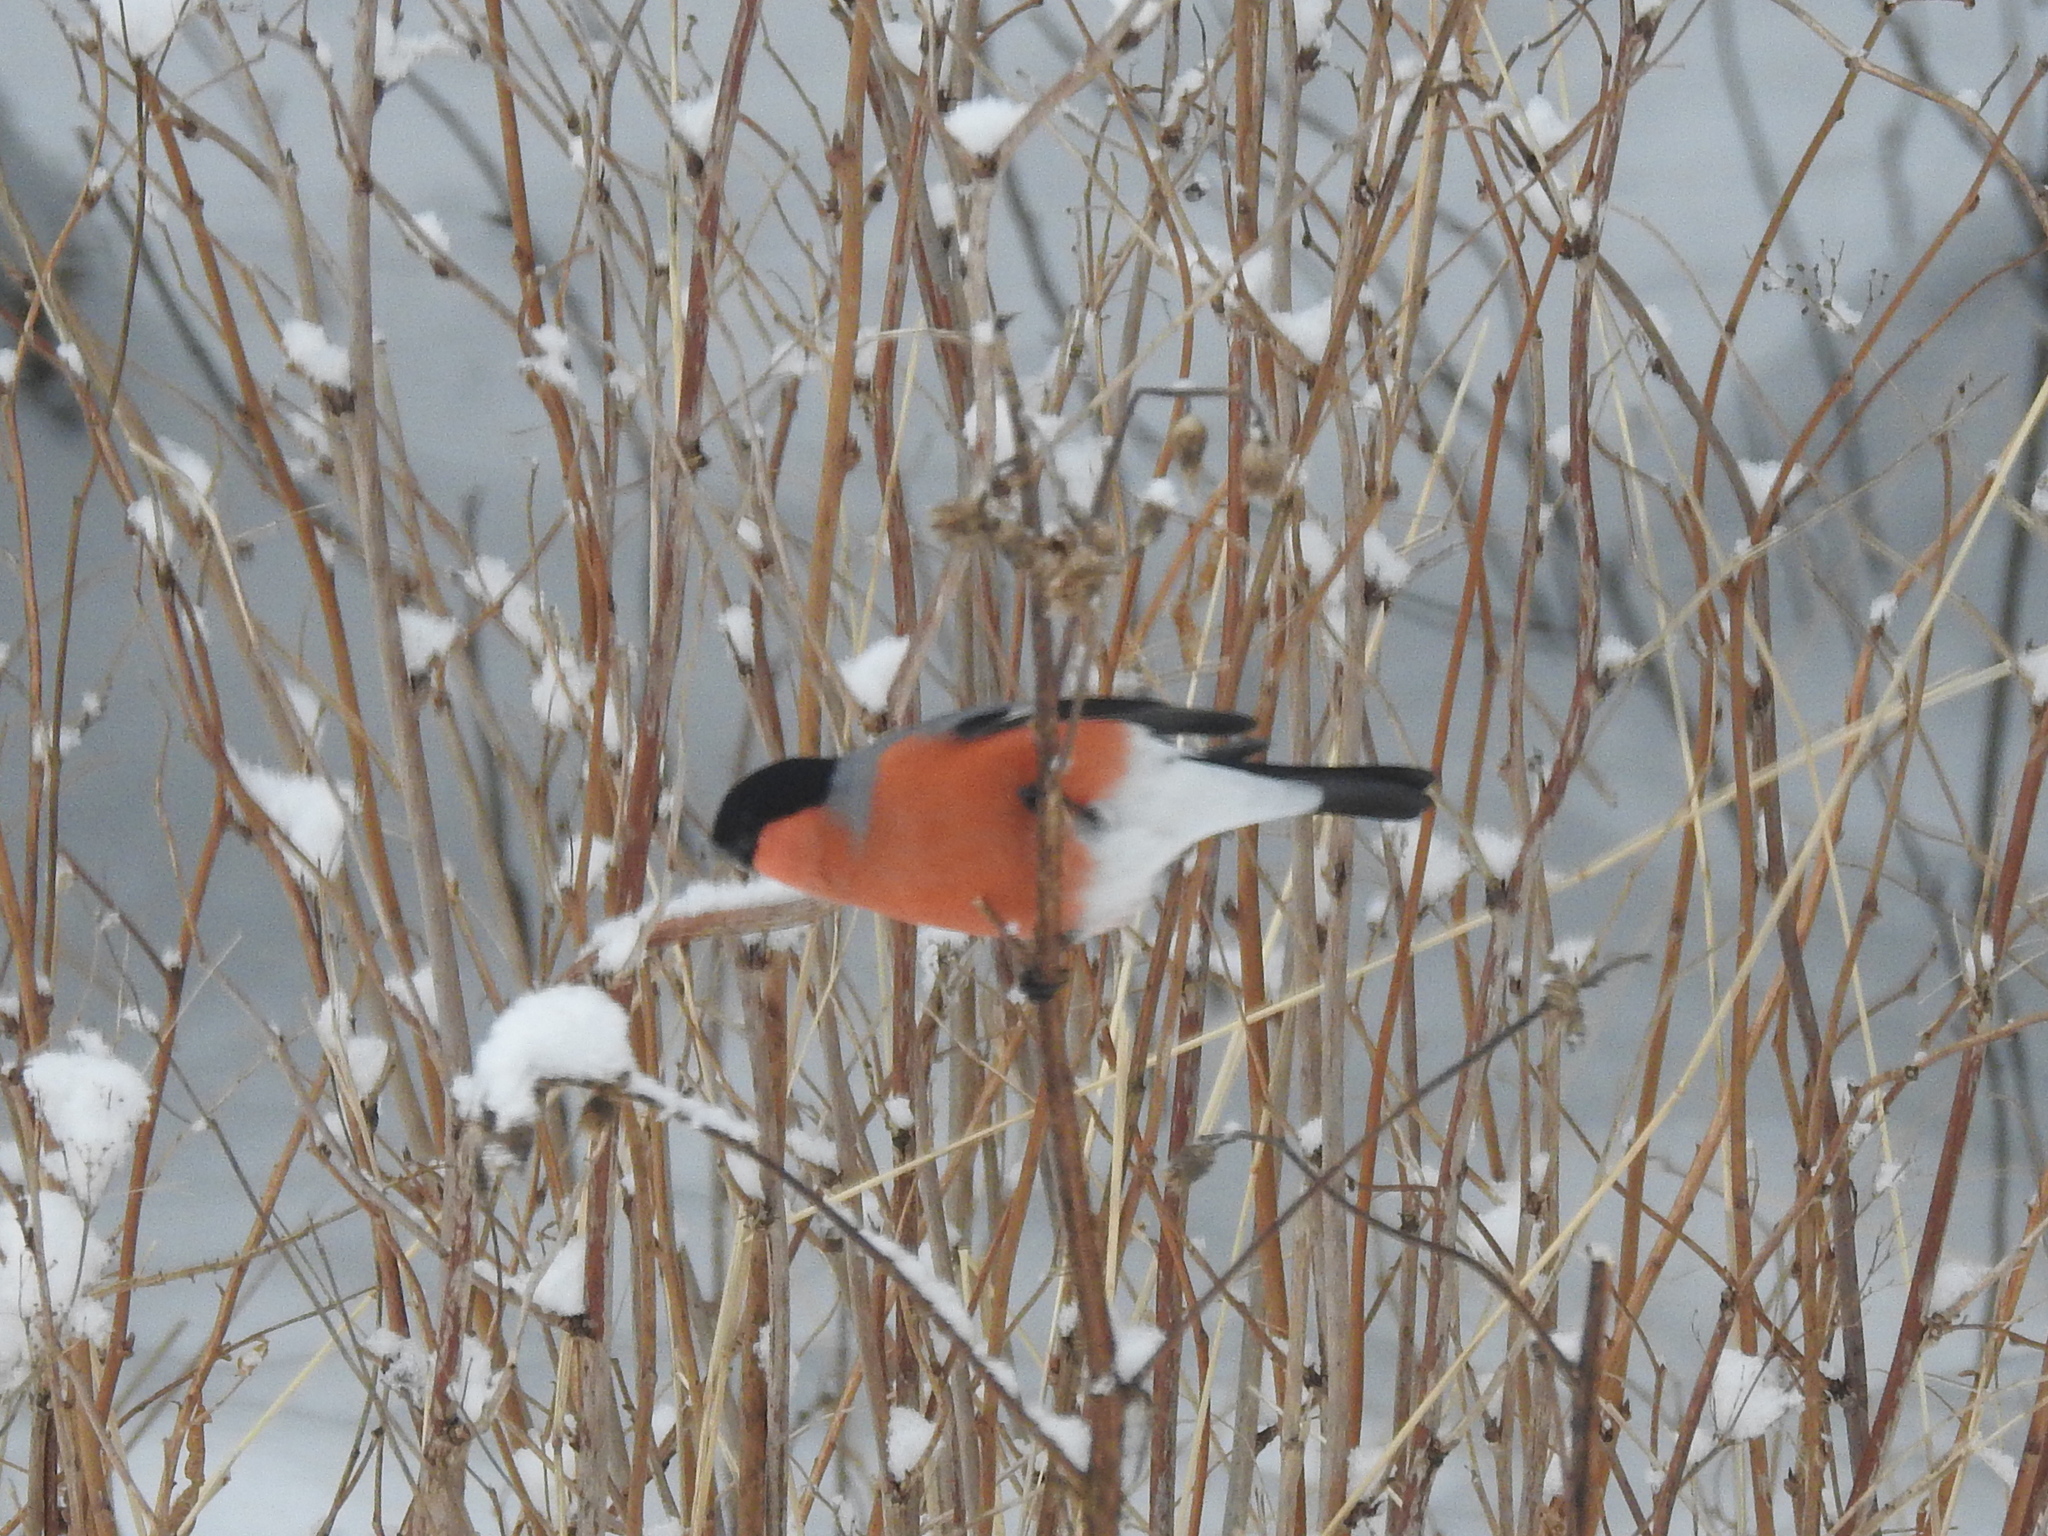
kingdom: Animalia
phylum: Chordata
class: Aves
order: Passeriformes
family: Fringillidae
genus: Pyrrhula
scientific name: Pyrrhula pyrrhula
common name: Eurasian bullfinch
